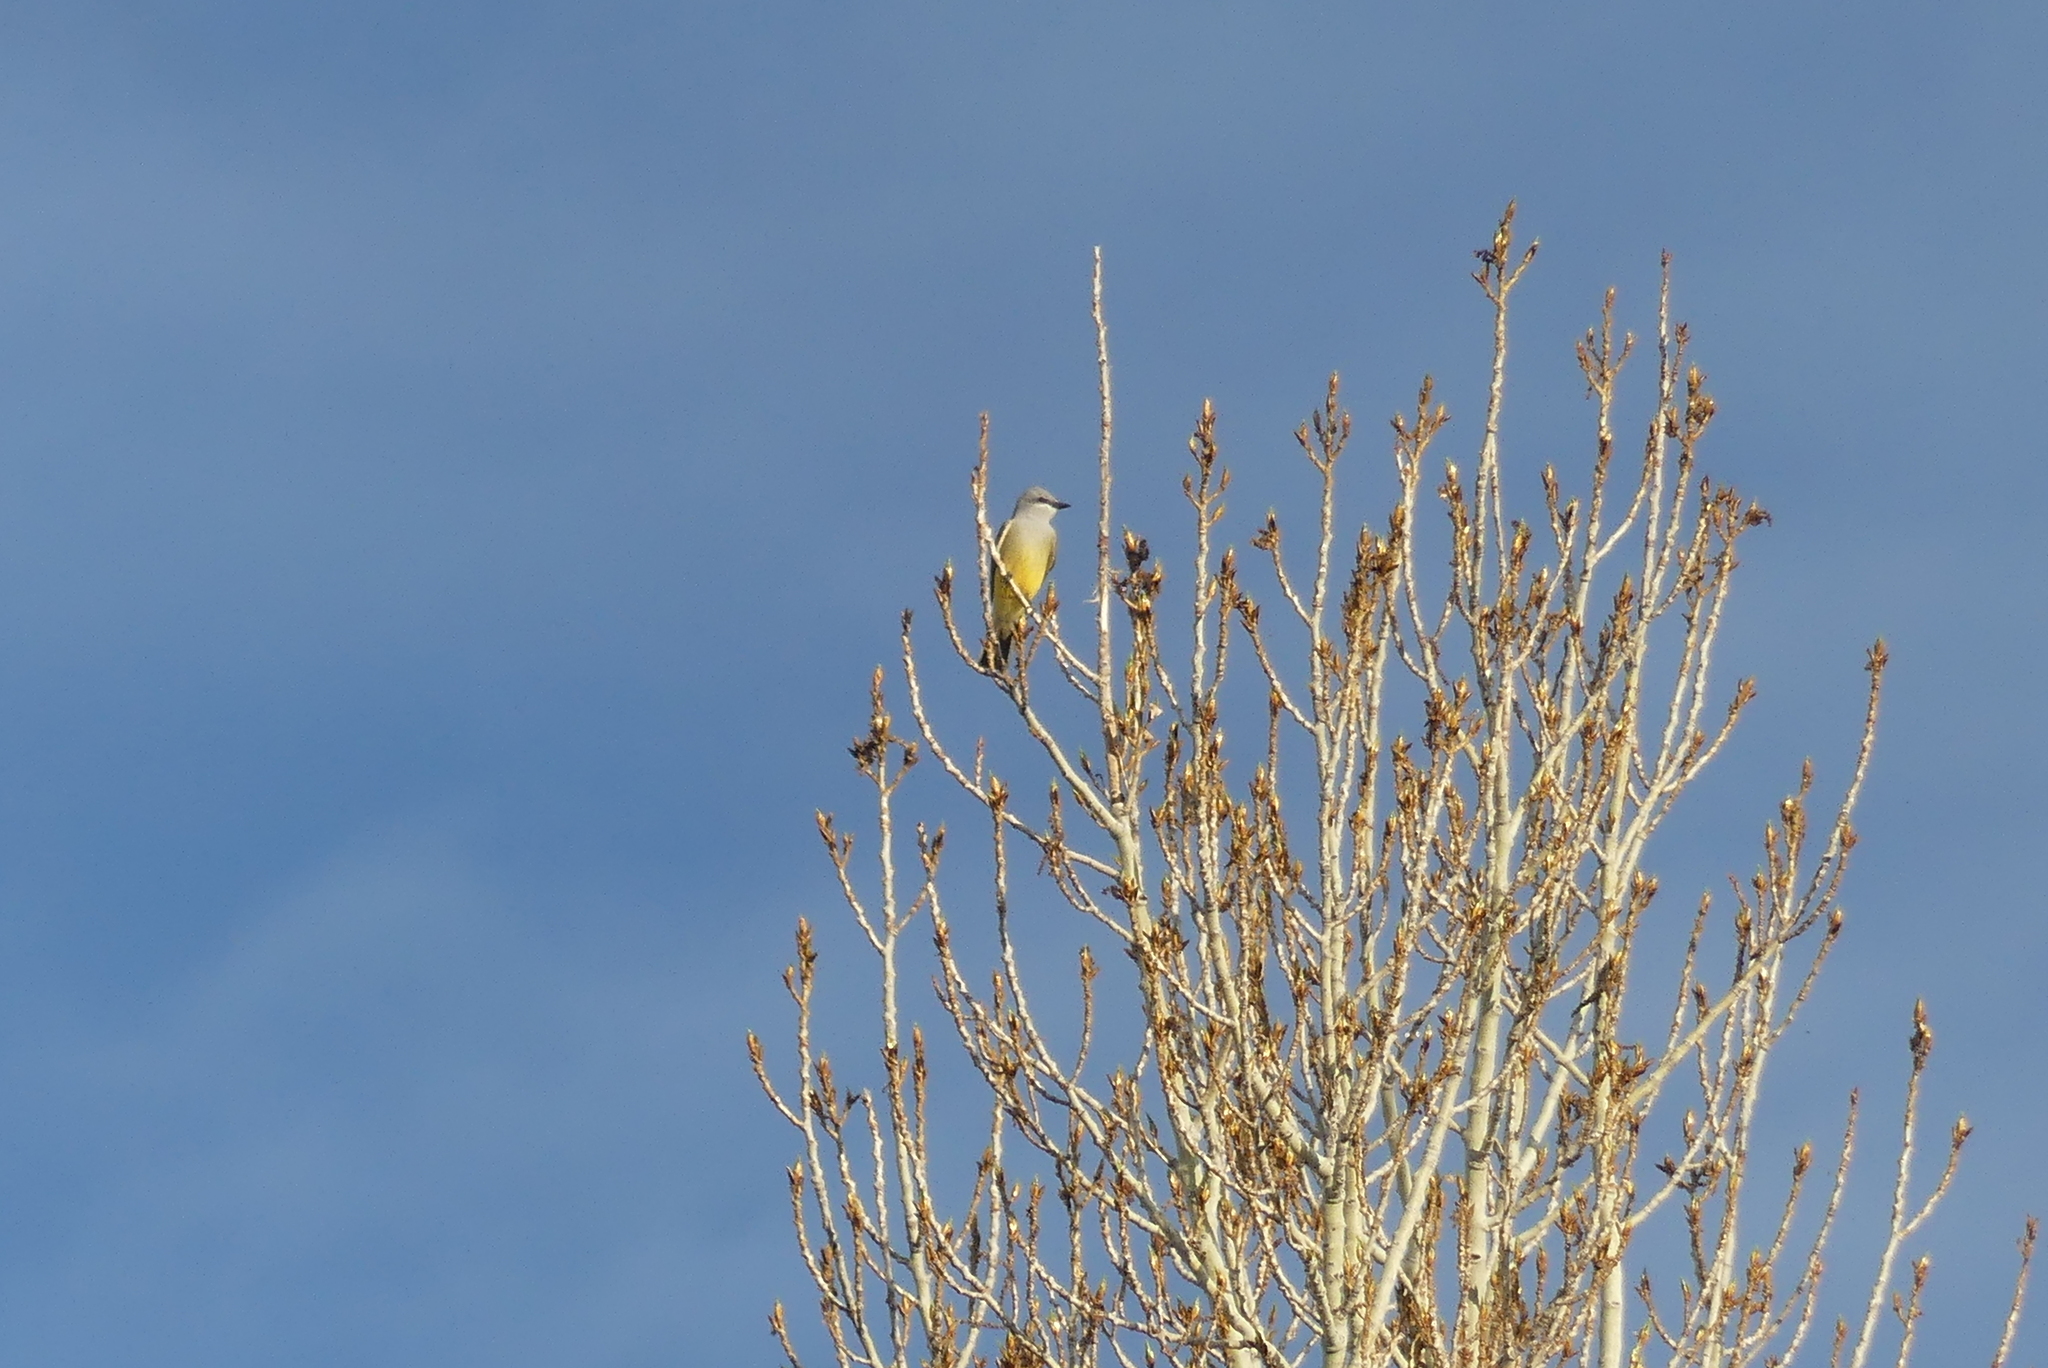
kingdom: Animalia
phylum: Chordata
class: Aves
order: Passeriformes
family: Tyrannidae
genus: Tyrannus
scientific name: Tyrannus verticalis
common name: Western kingbird
